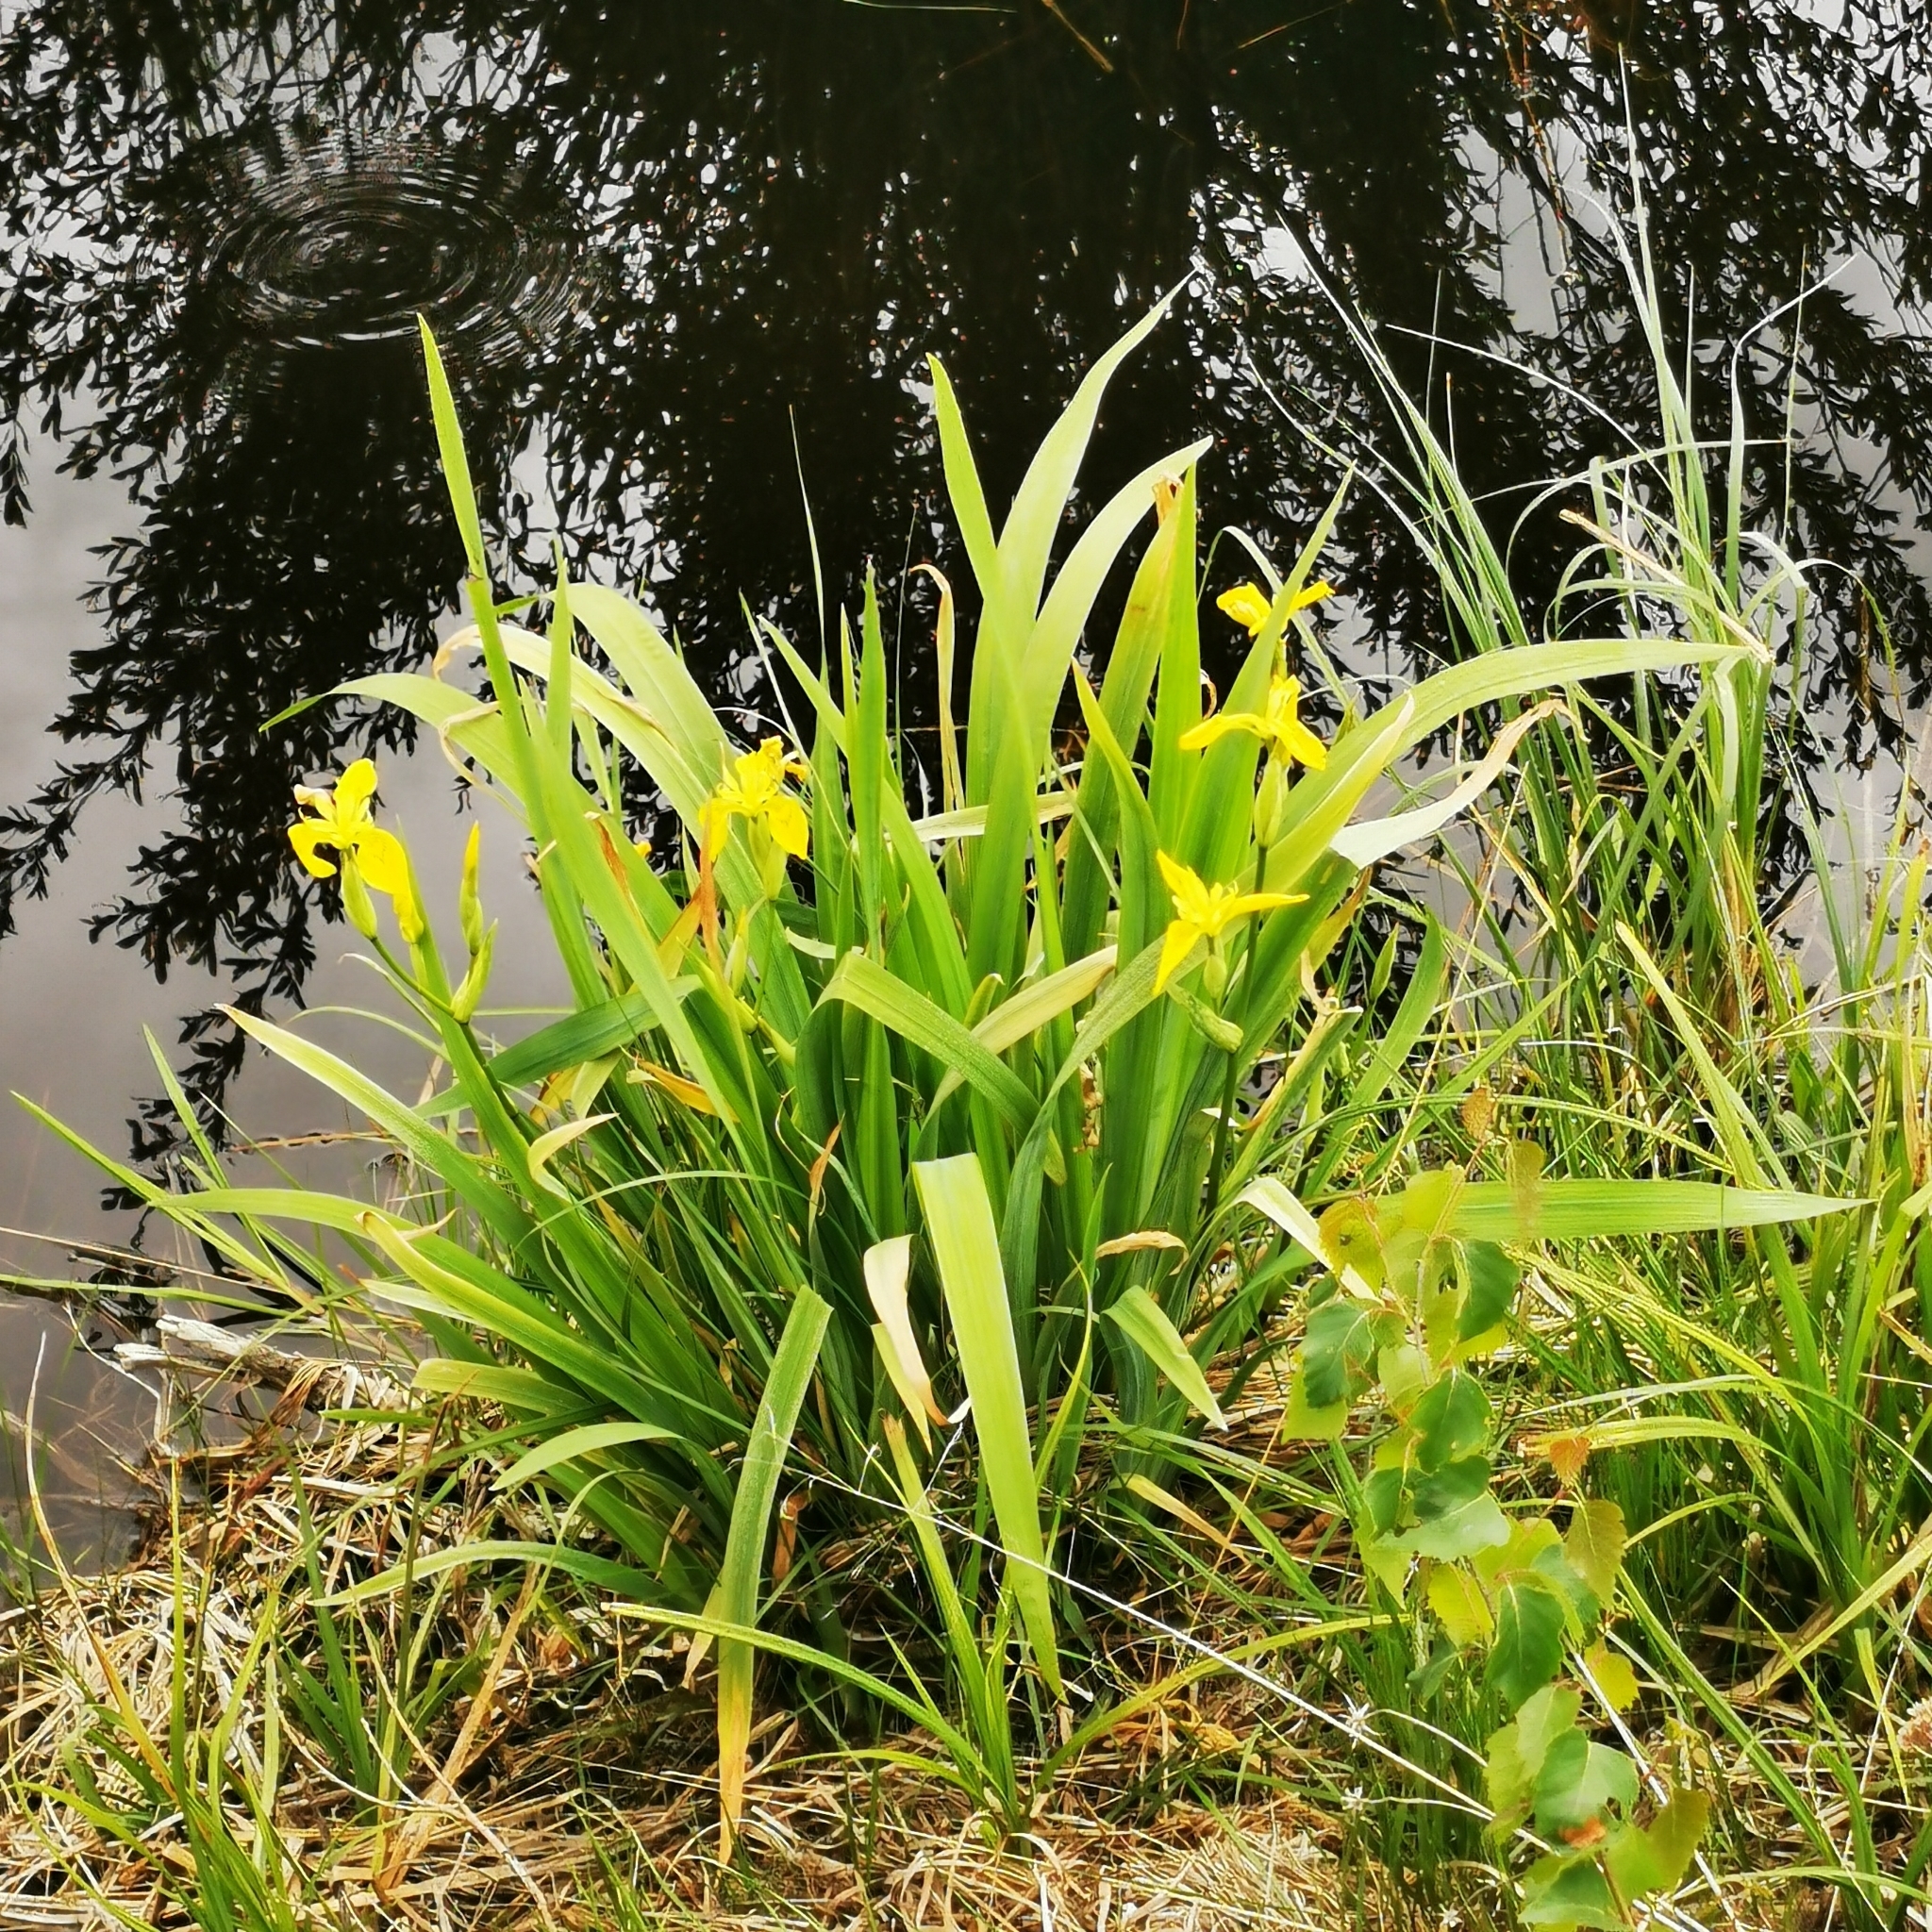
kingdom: Plantae
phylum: Tracheophyta
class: Liliopsida
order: Asparagales
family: Iridaceae
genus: Iris
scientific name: Iris pseudacorus
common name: Yellow flag
